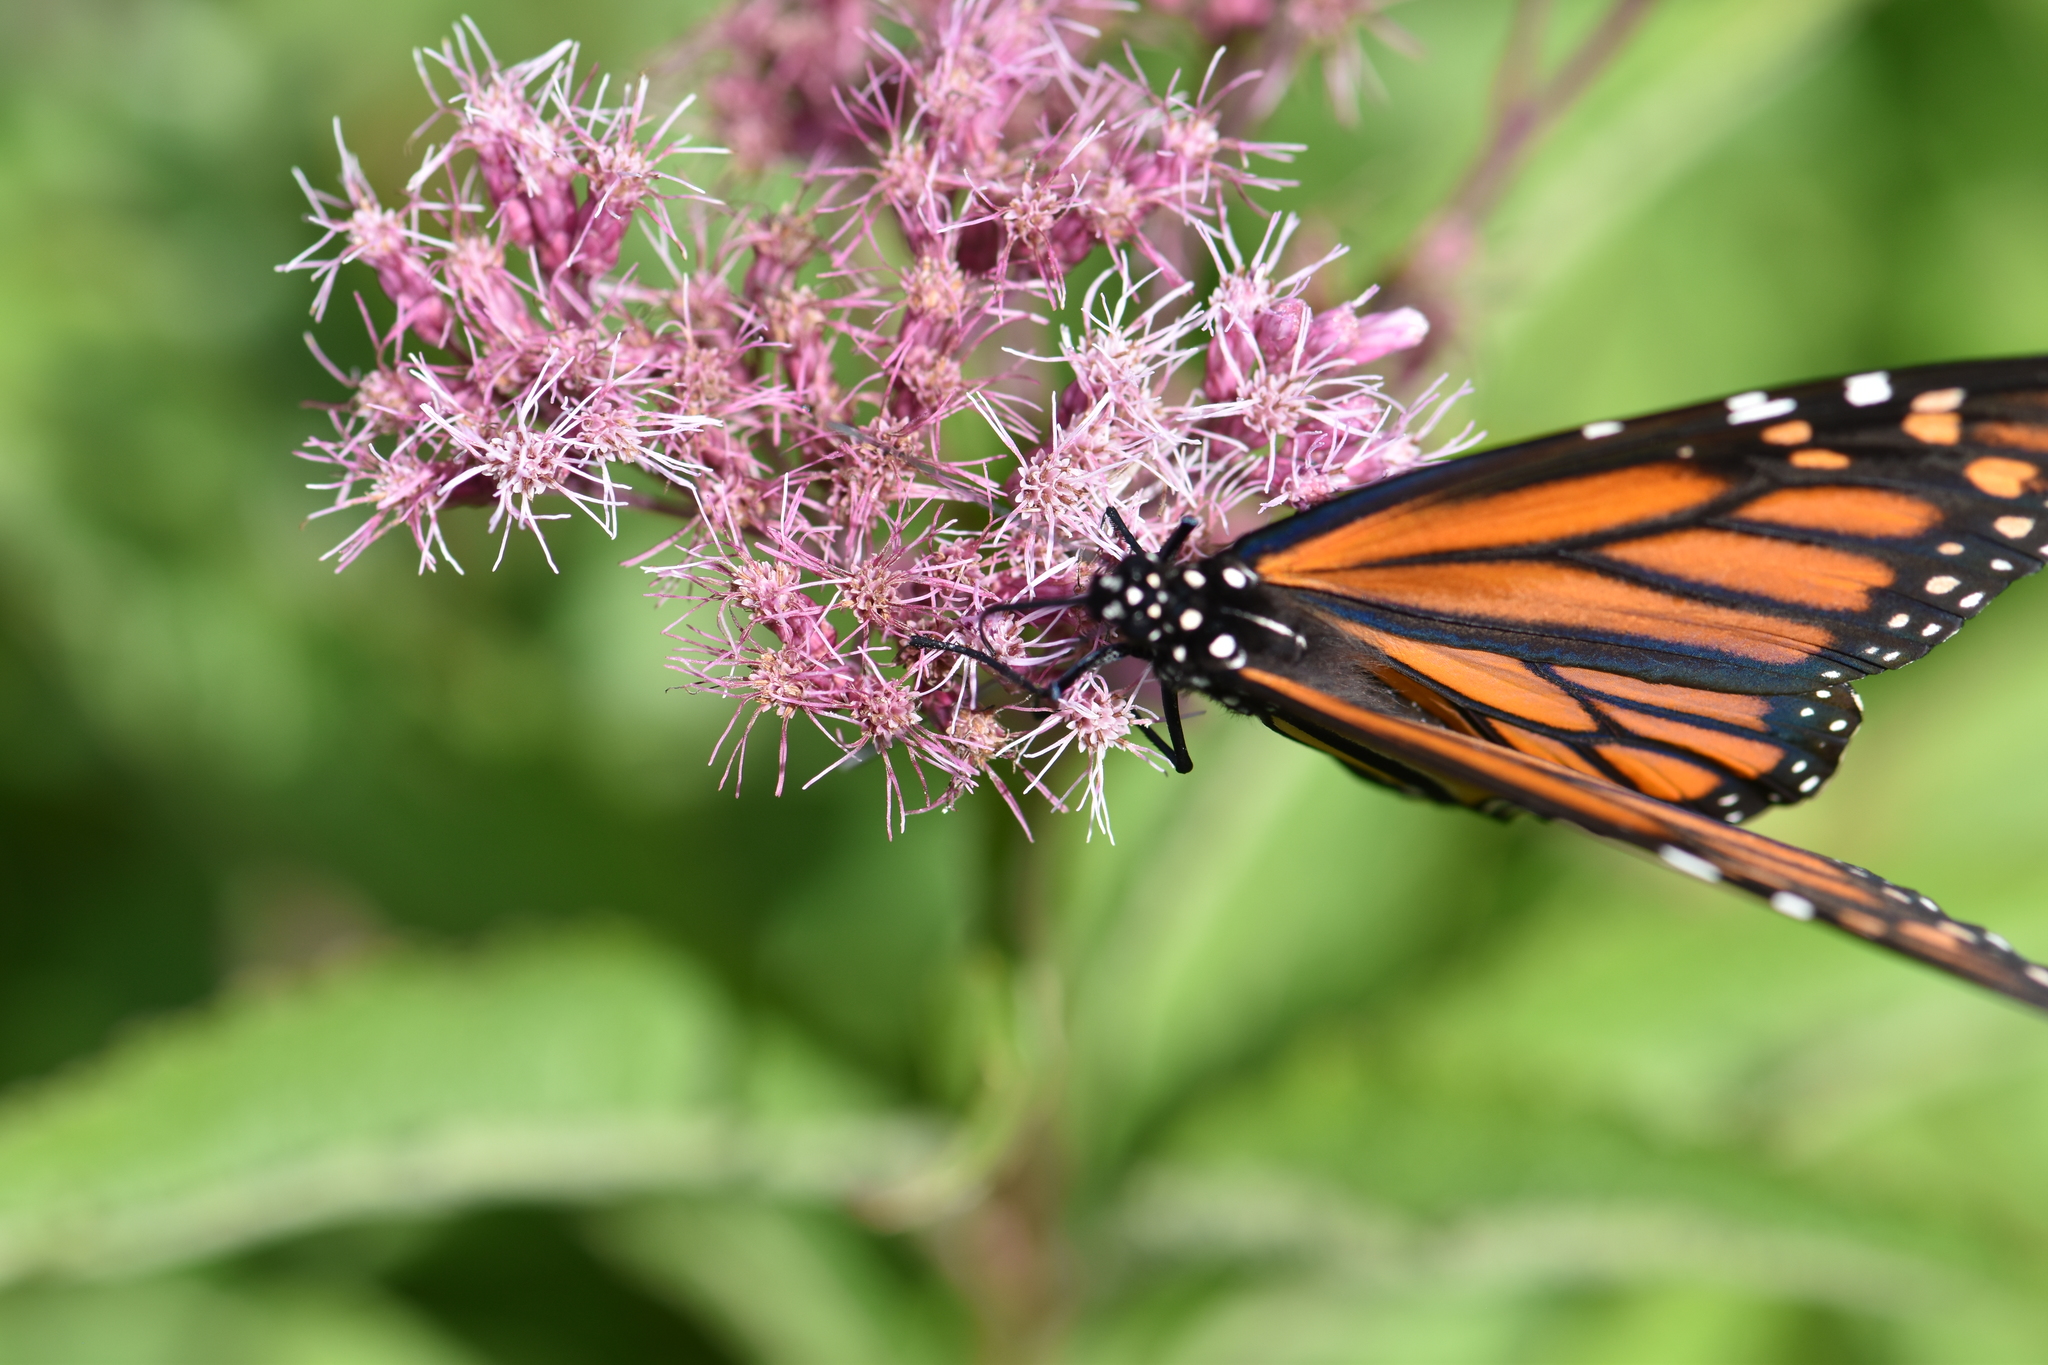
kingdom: Animalia
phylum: Arthropoda
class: Insecta
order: Lepidoptera
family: Nymphalidae
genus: Danaus
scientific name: Danaus plexippus
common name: Monarch
